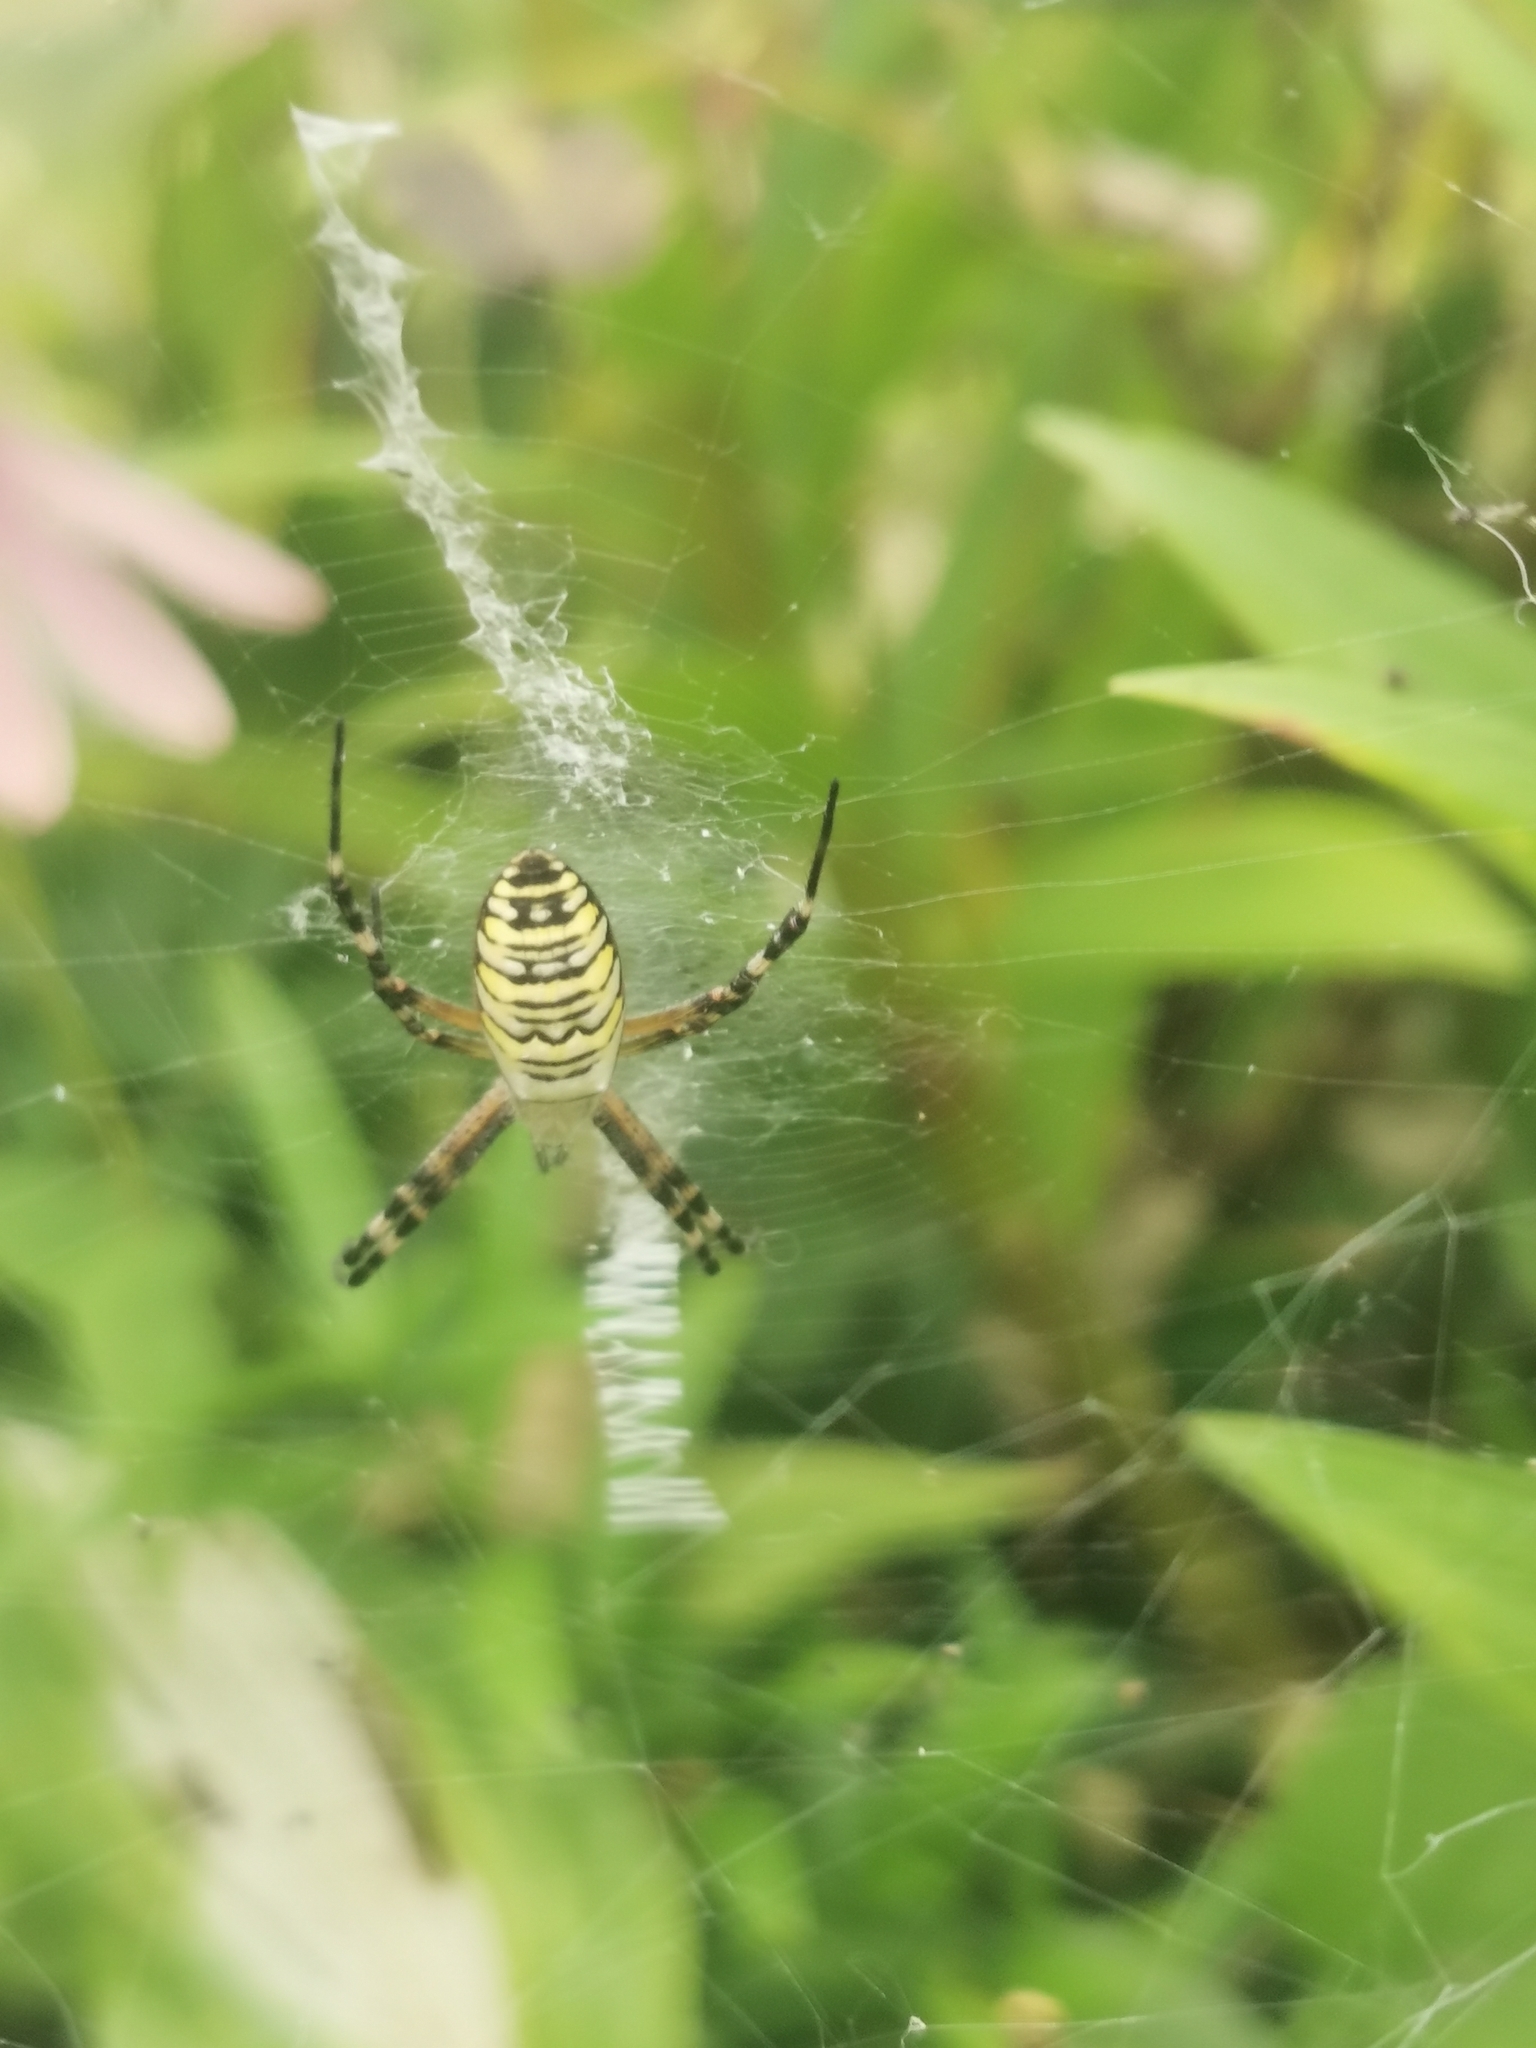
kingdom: Animalia
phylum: Arthropoda
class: Arachnida
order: Araneae
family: Araneidae
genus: Argiope
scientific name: Argiope bruennichi
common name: Wasp spider
